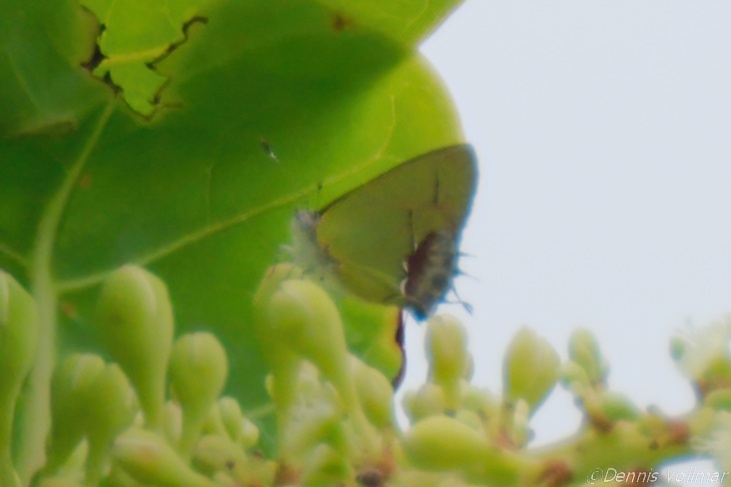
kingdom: Animalia
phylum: Arthropoda
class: Insecta
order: Lepidoptera
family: Lycaenidae
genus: Thecla
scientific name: Thecla maesites
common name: Verde azul hairstreak
